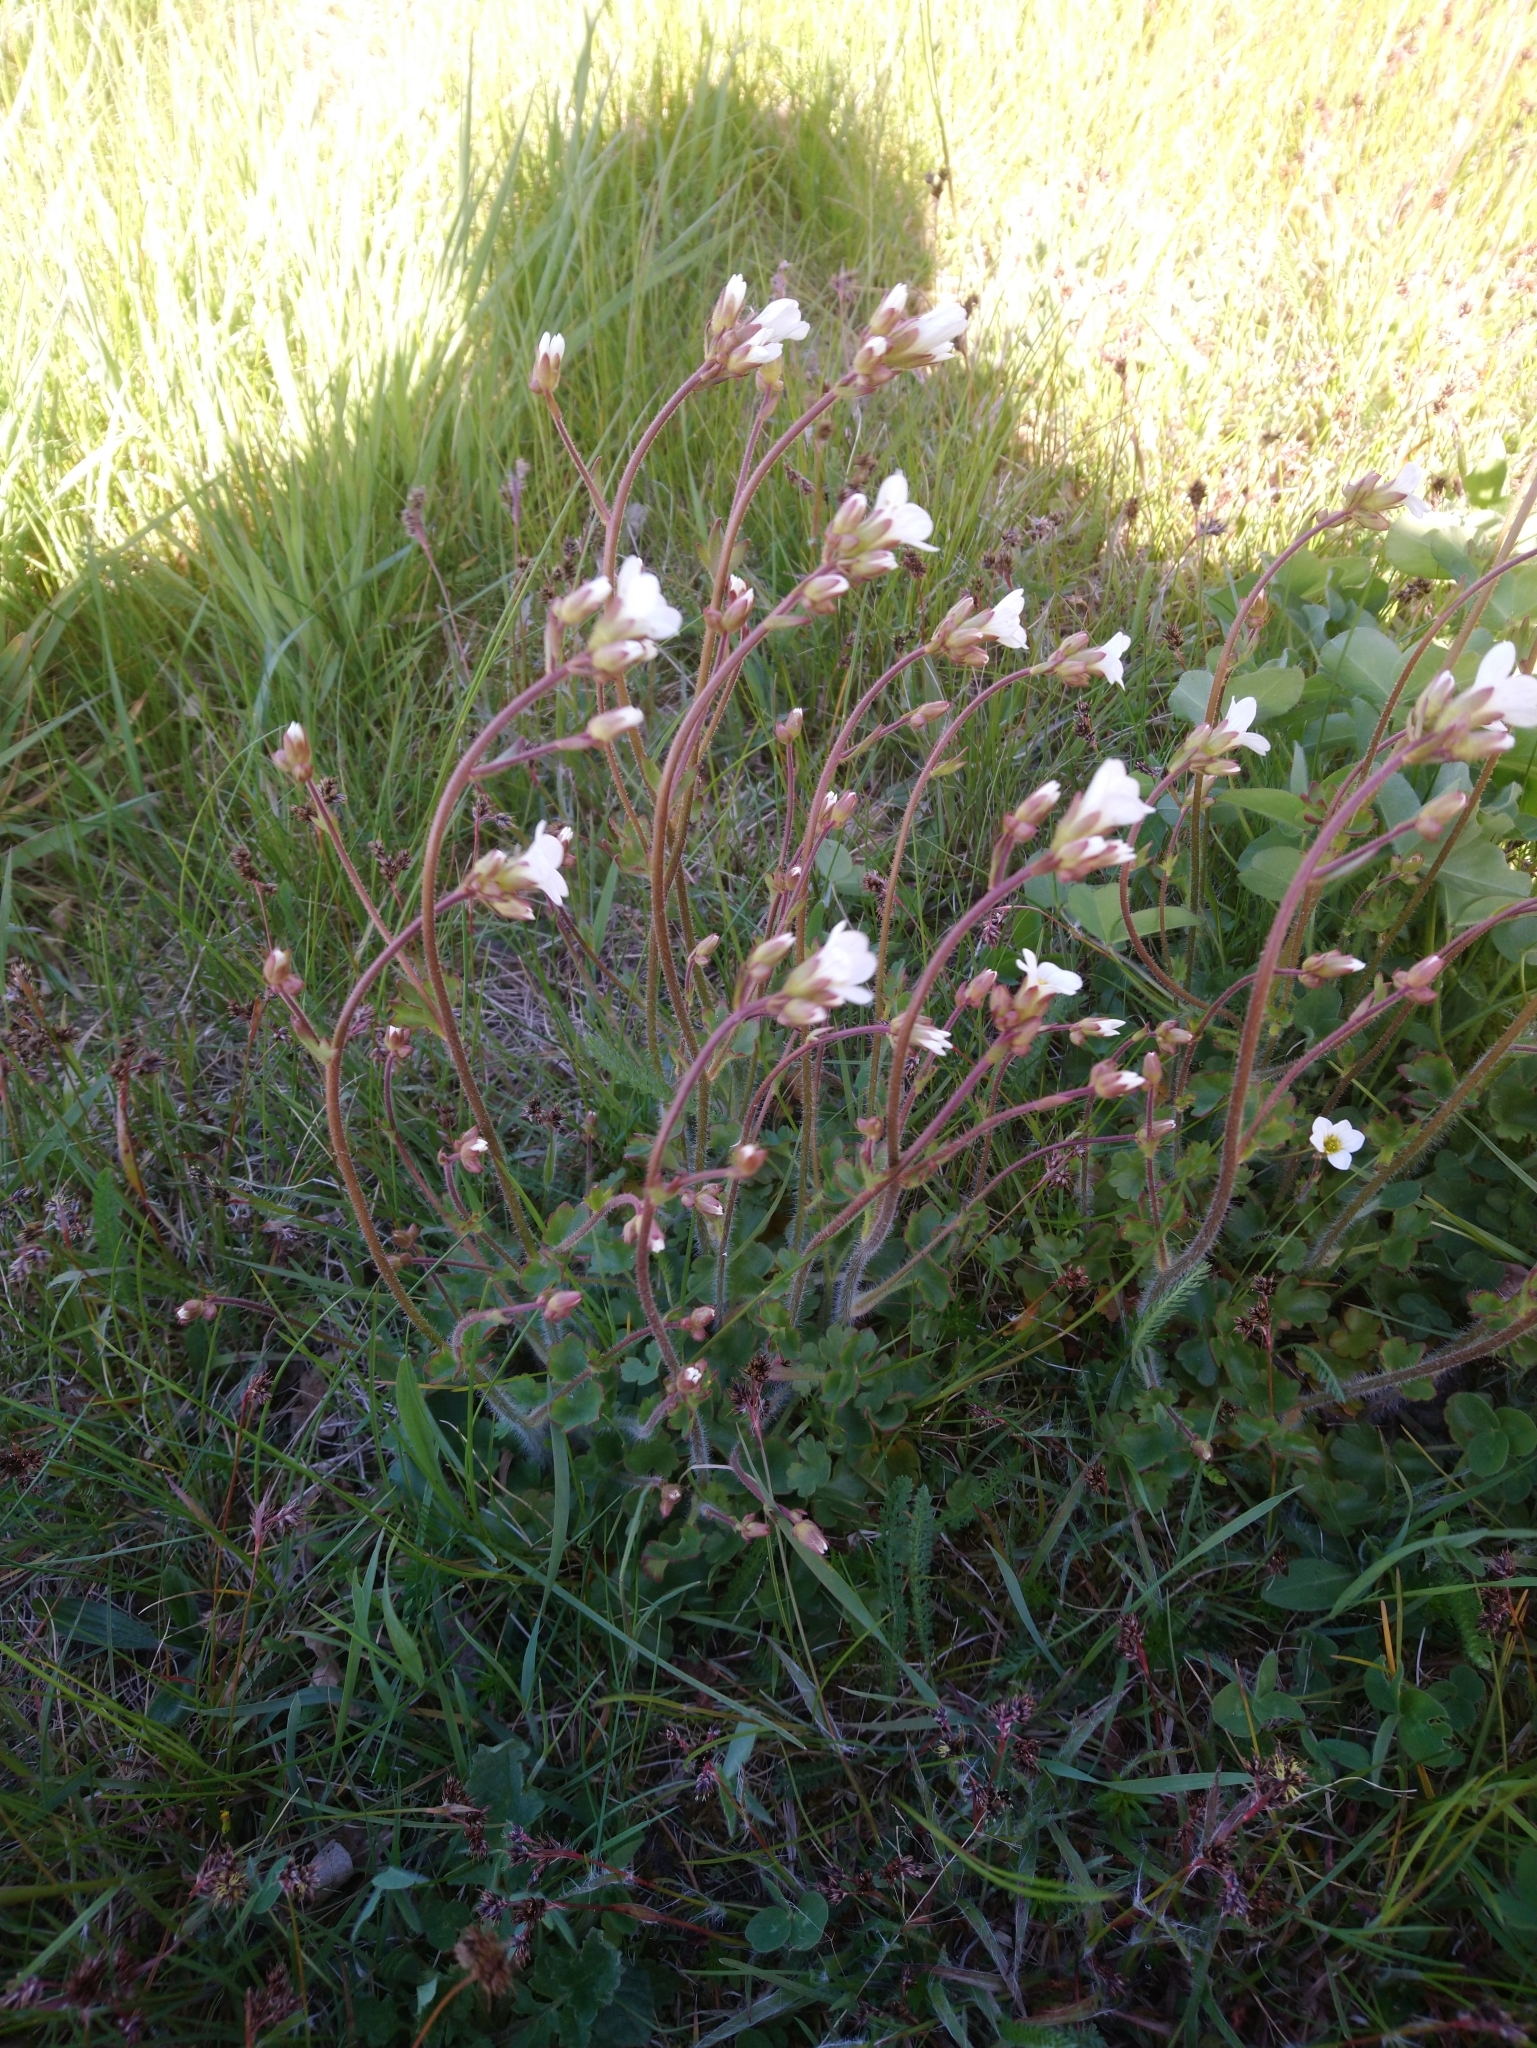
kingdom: Plantae
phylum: Tracheophyta
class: Magnoliopsida
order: Saxifragales
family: Saxifragaceae
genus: Saxifraga
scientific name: Saxifraga granulata
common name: Meadow saxifrage
